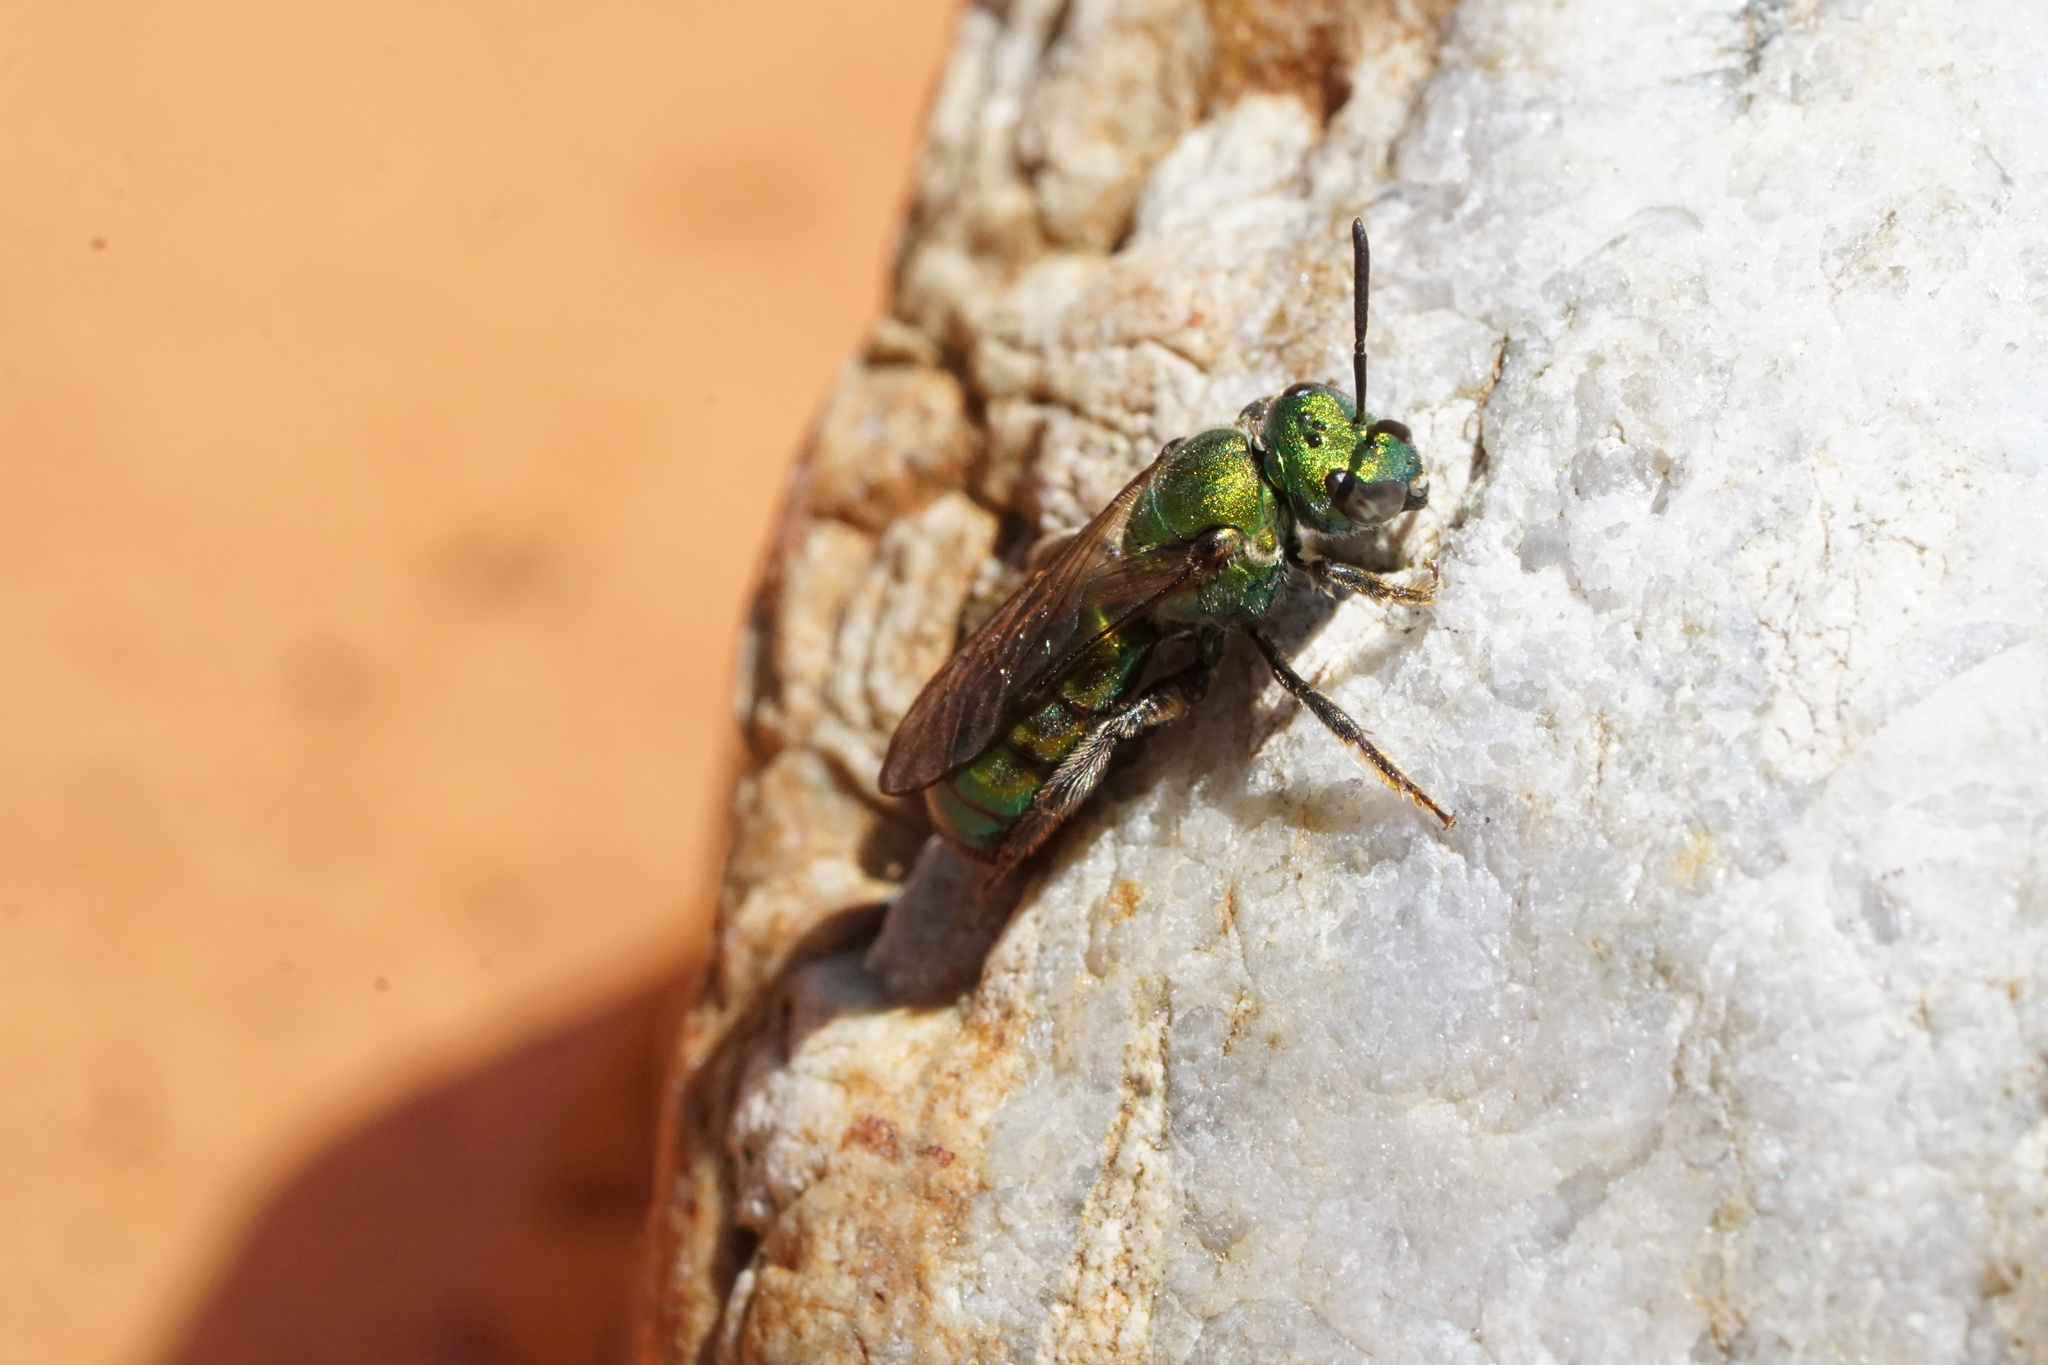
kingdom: Animalia
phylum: Arthropoda
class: Insecta
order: Hymenoptera
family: Halictidae
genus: Augochlora
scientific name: Augochlora pura
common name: Pure green sweat bee
